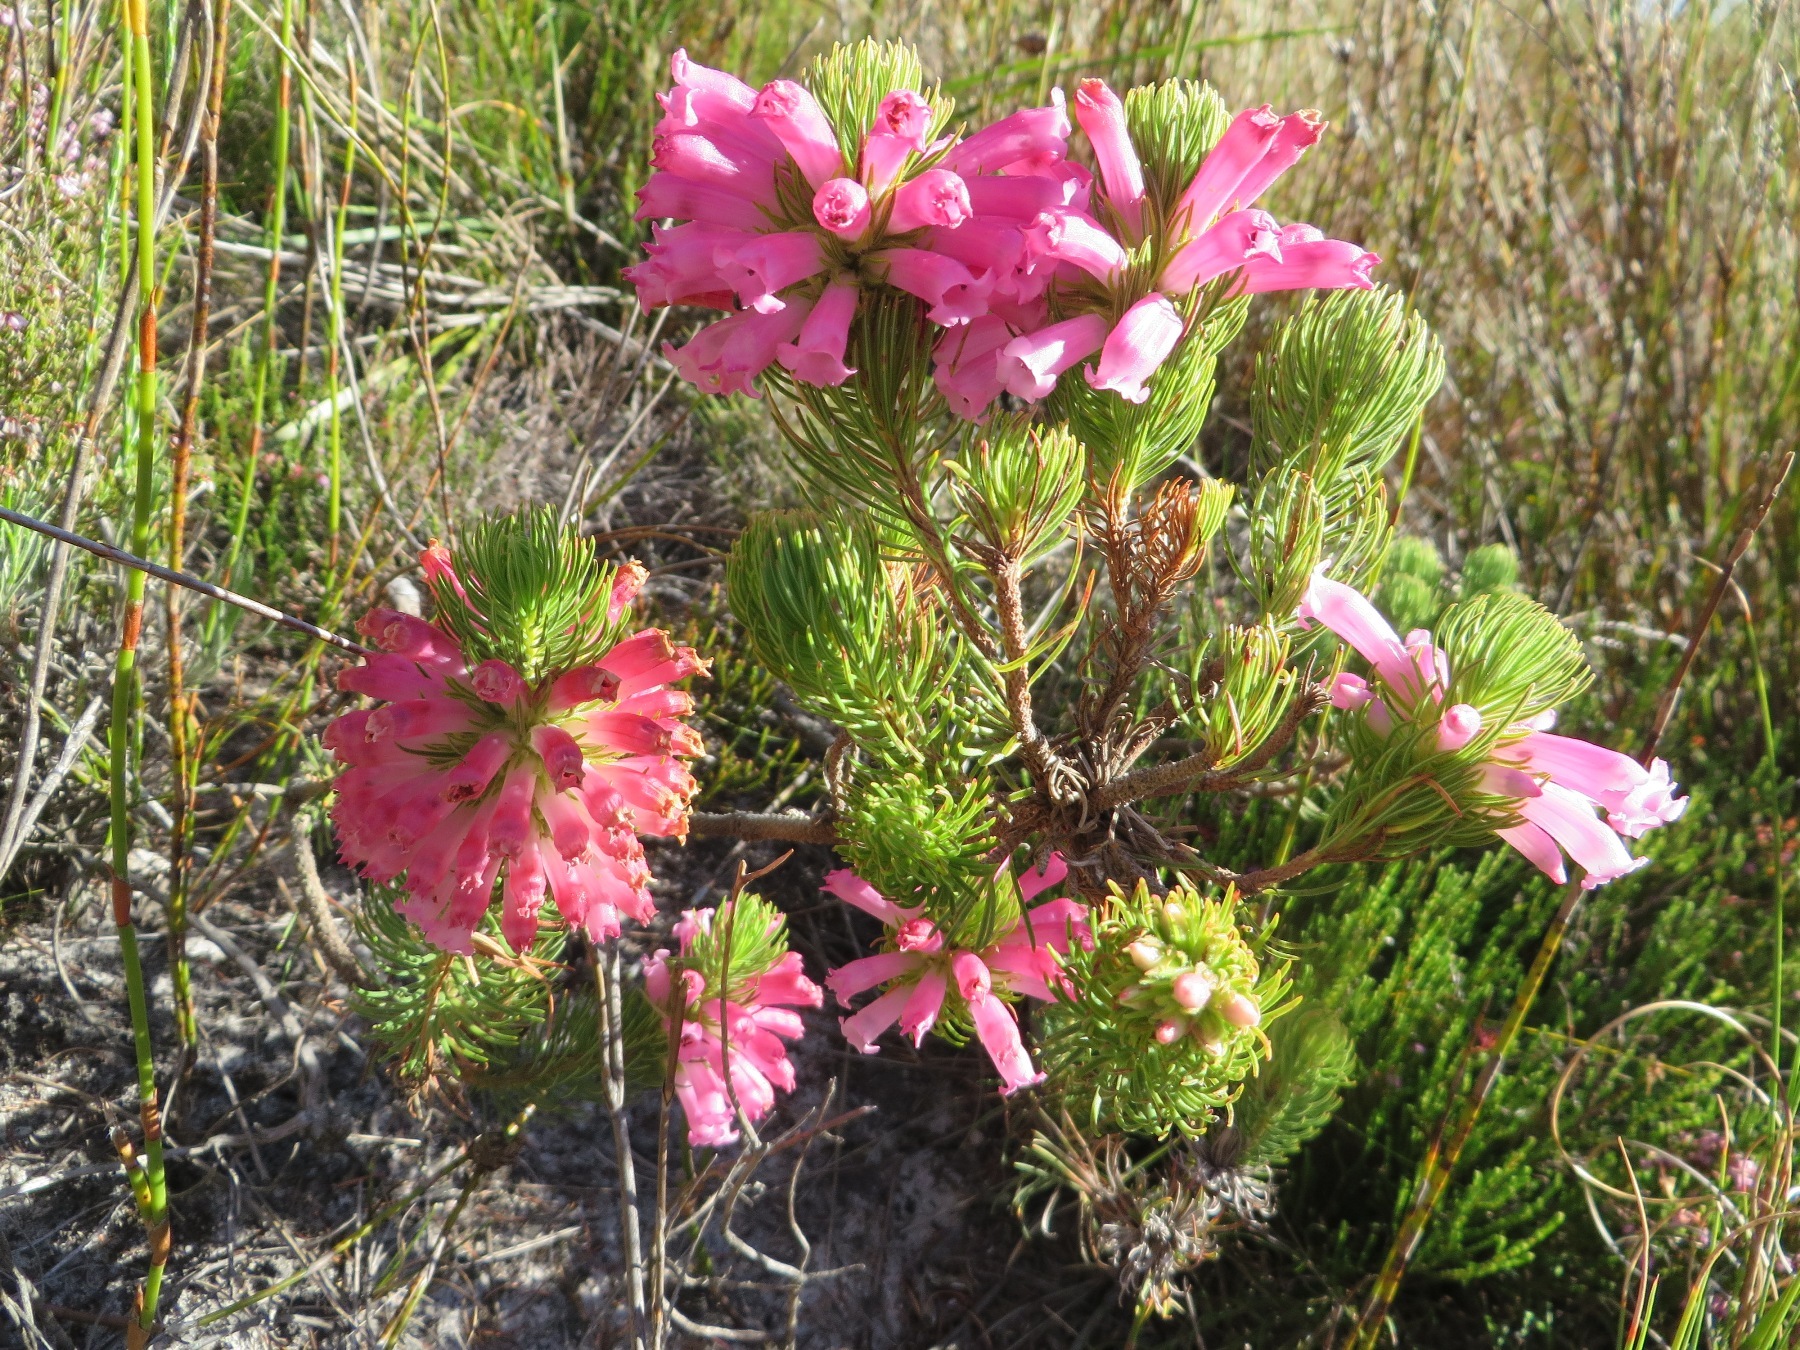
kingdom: Plantae
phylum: Tracheophyta
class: Magnoliopsida
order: Ericales
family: Ericaceae
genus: Erica
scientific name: Erica viscaria
